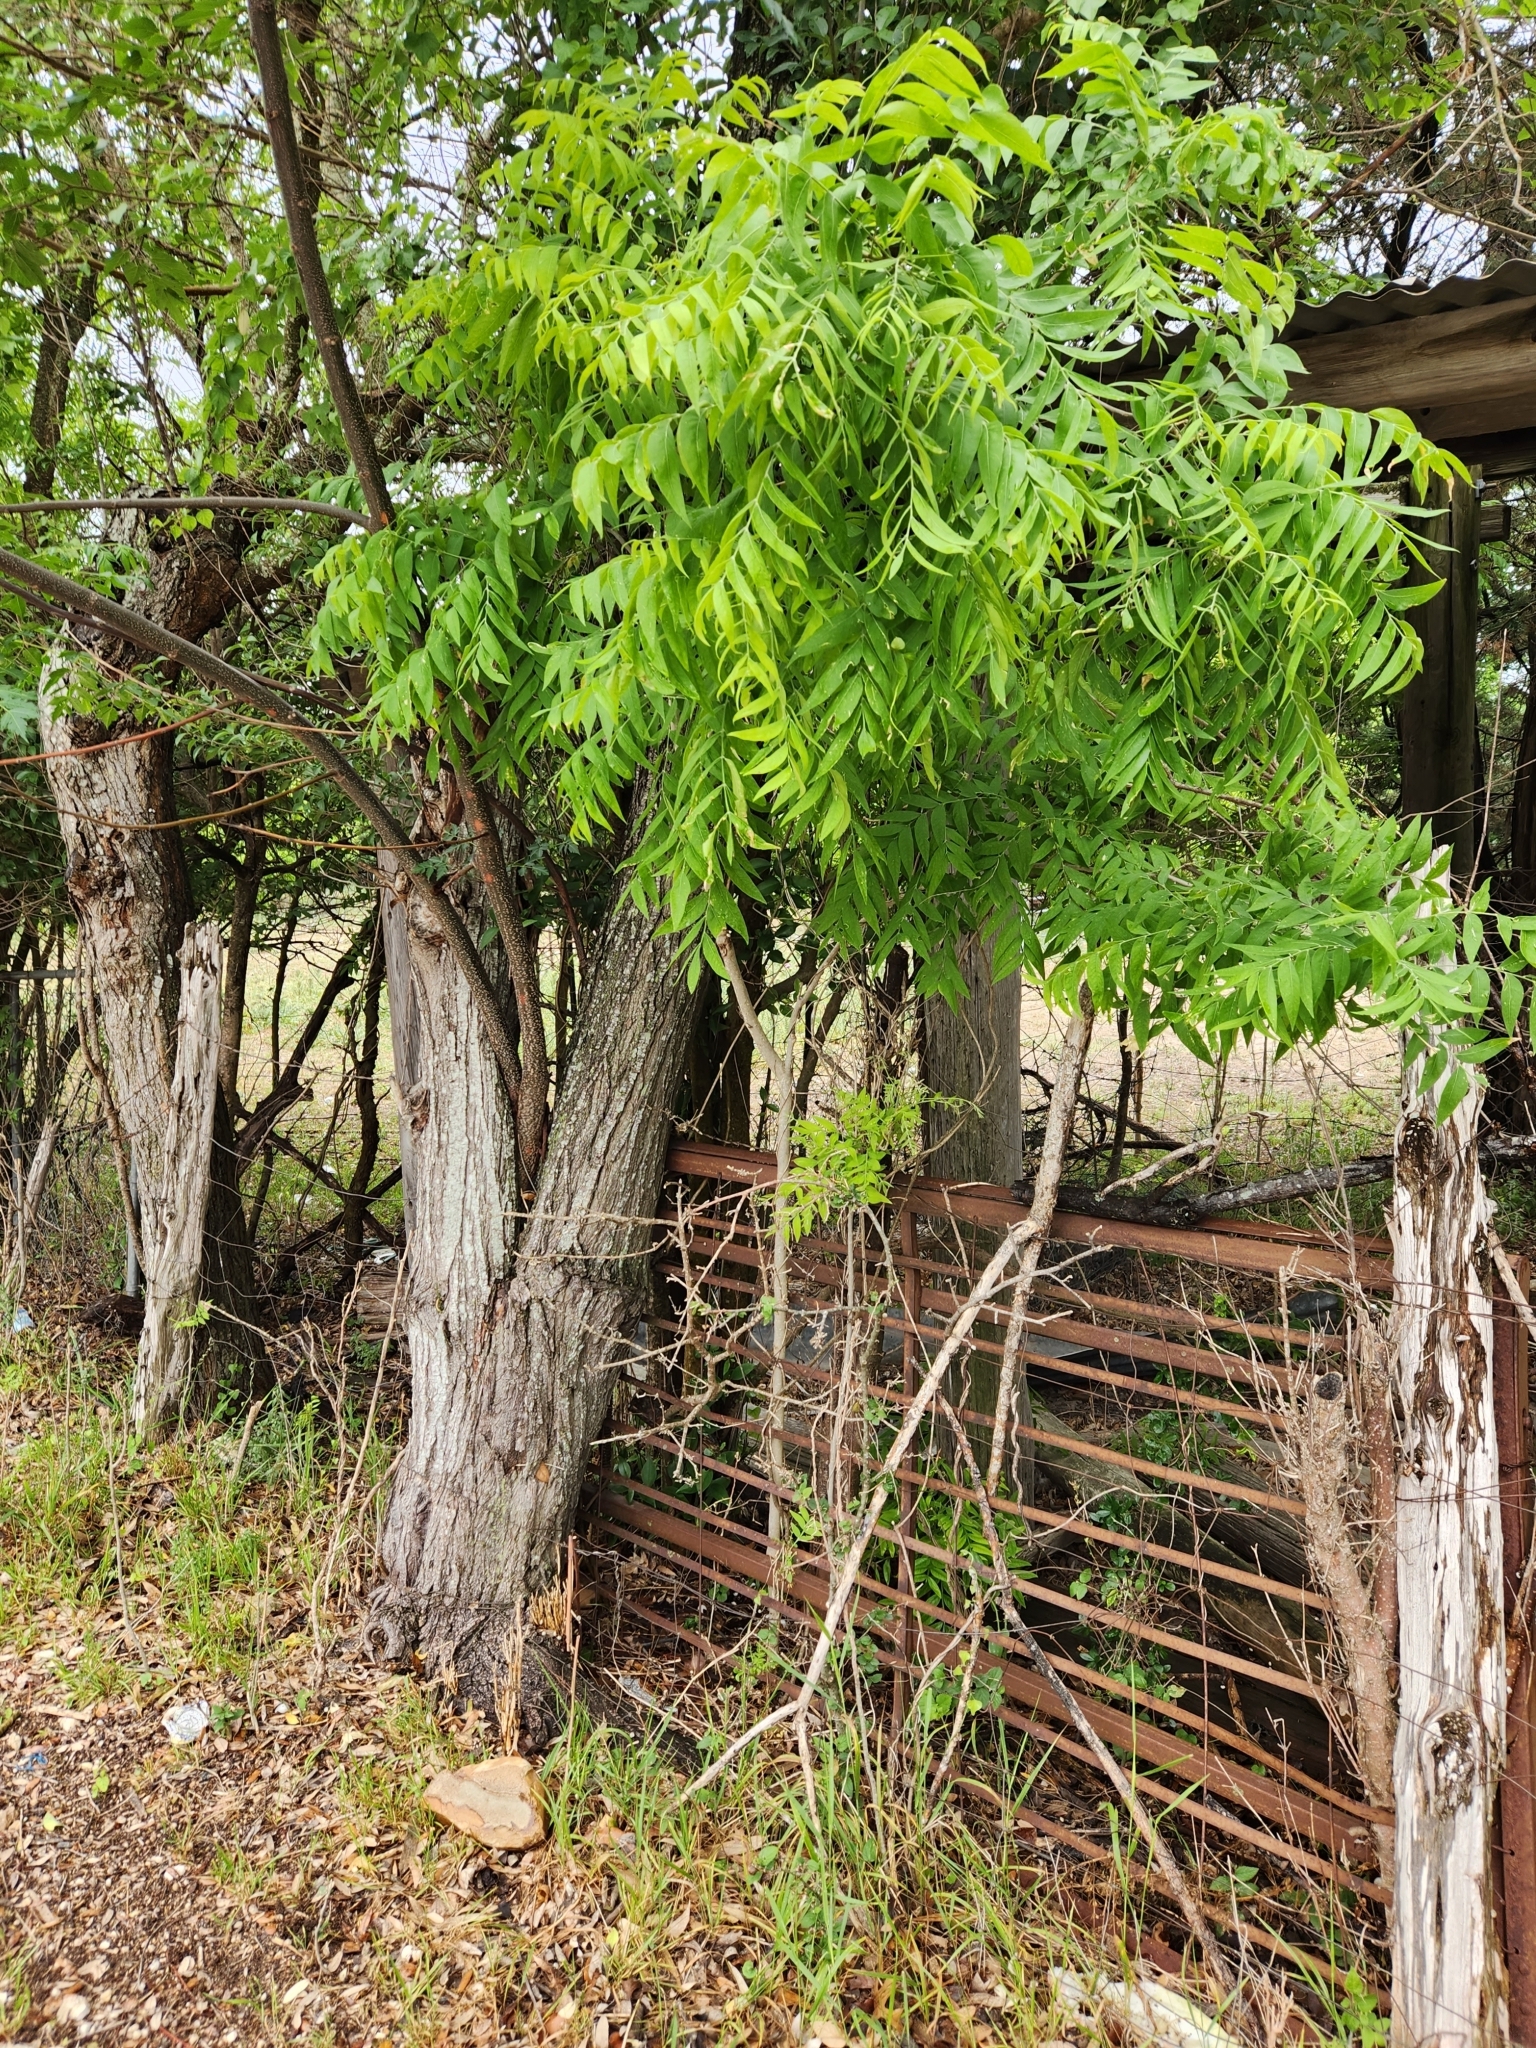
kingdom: Plantae
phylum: Tracheophyta
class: Magnoliopsida
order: Sapindales
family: Sapindaceae
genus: Sapindus
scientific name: Sapindus drummondii
